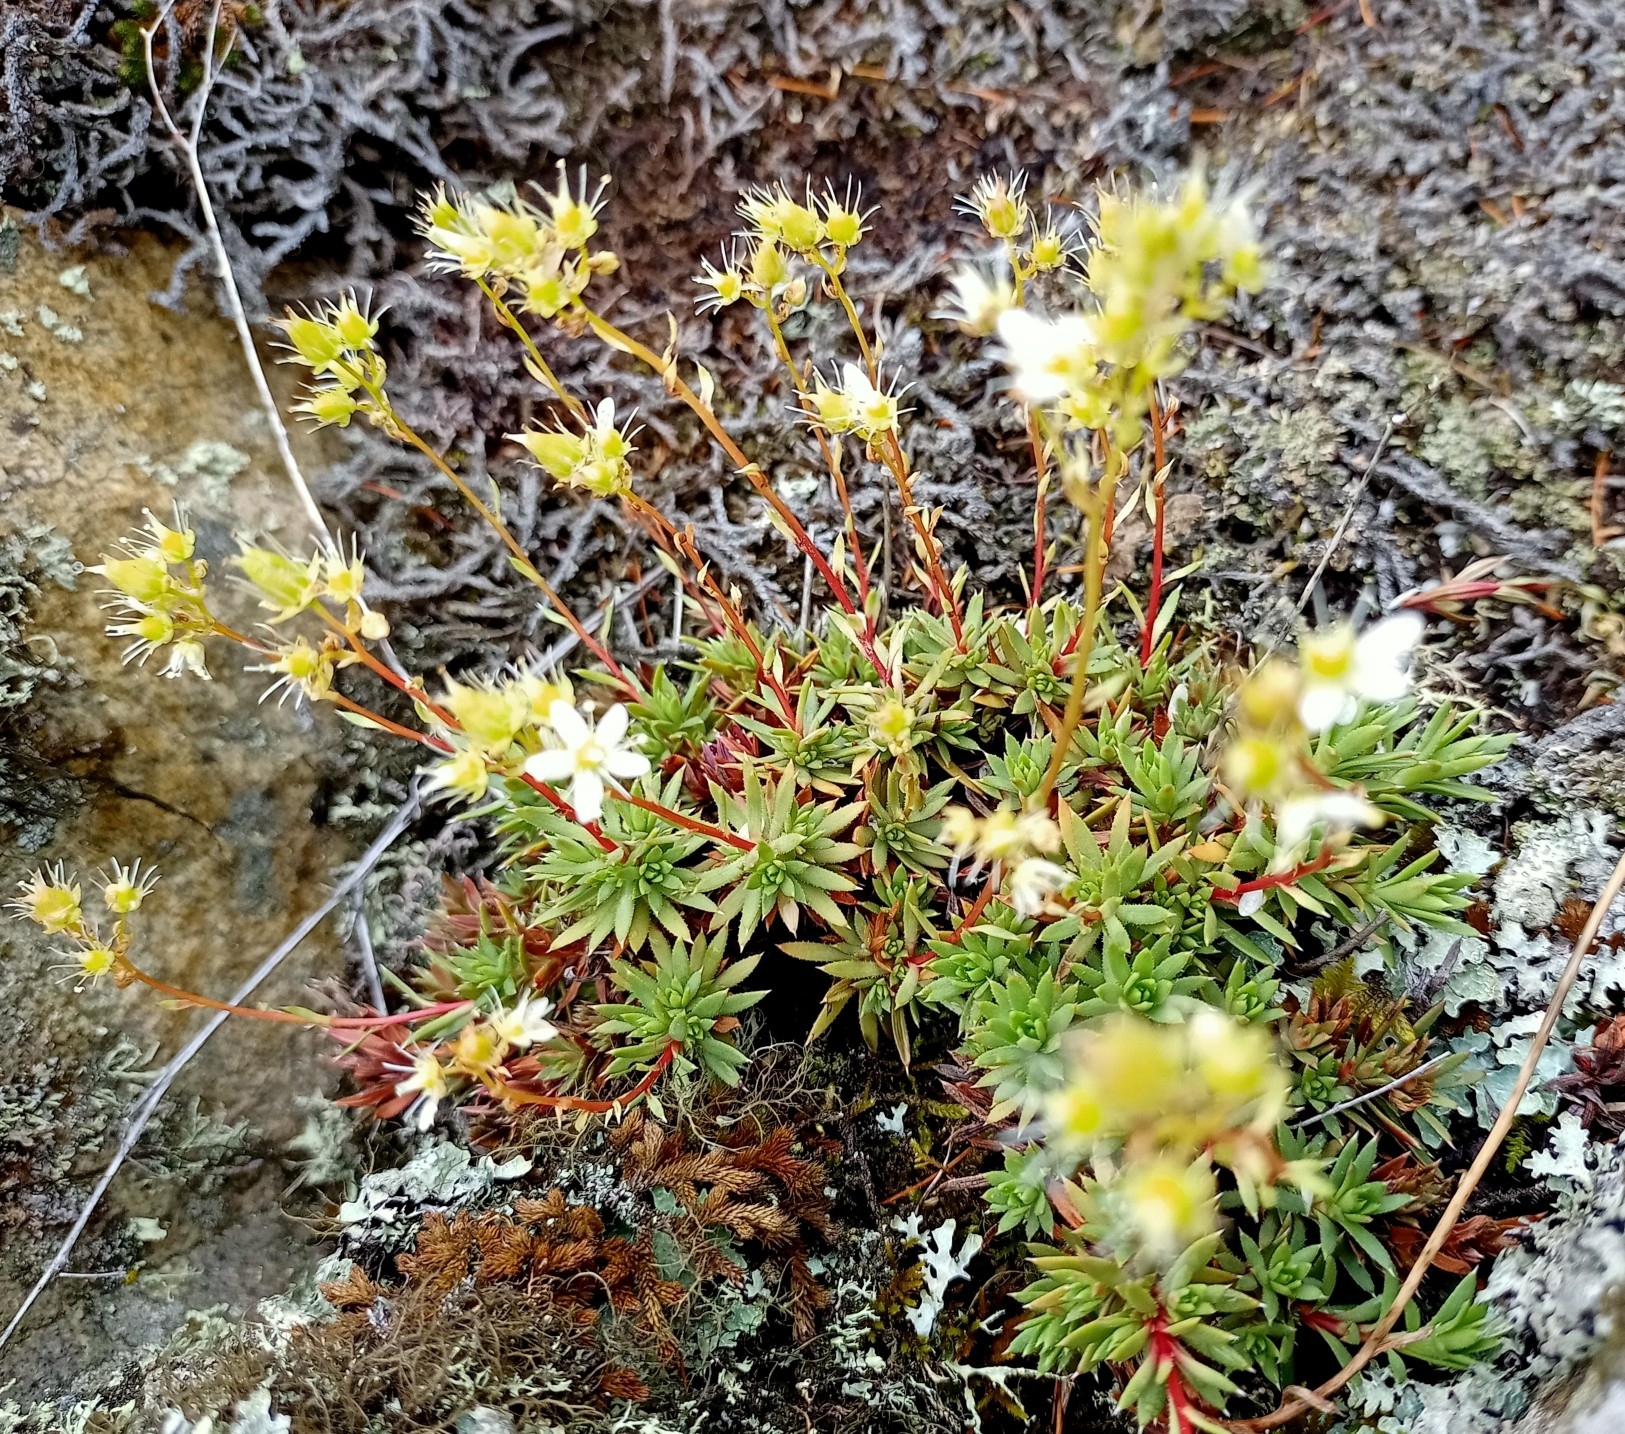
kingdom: Plantae
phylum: Tracheophyta
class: Magnoliopsida
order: Saxifragales
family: Saxifragaceae
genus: Saxifraga
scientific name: Saxifraga
